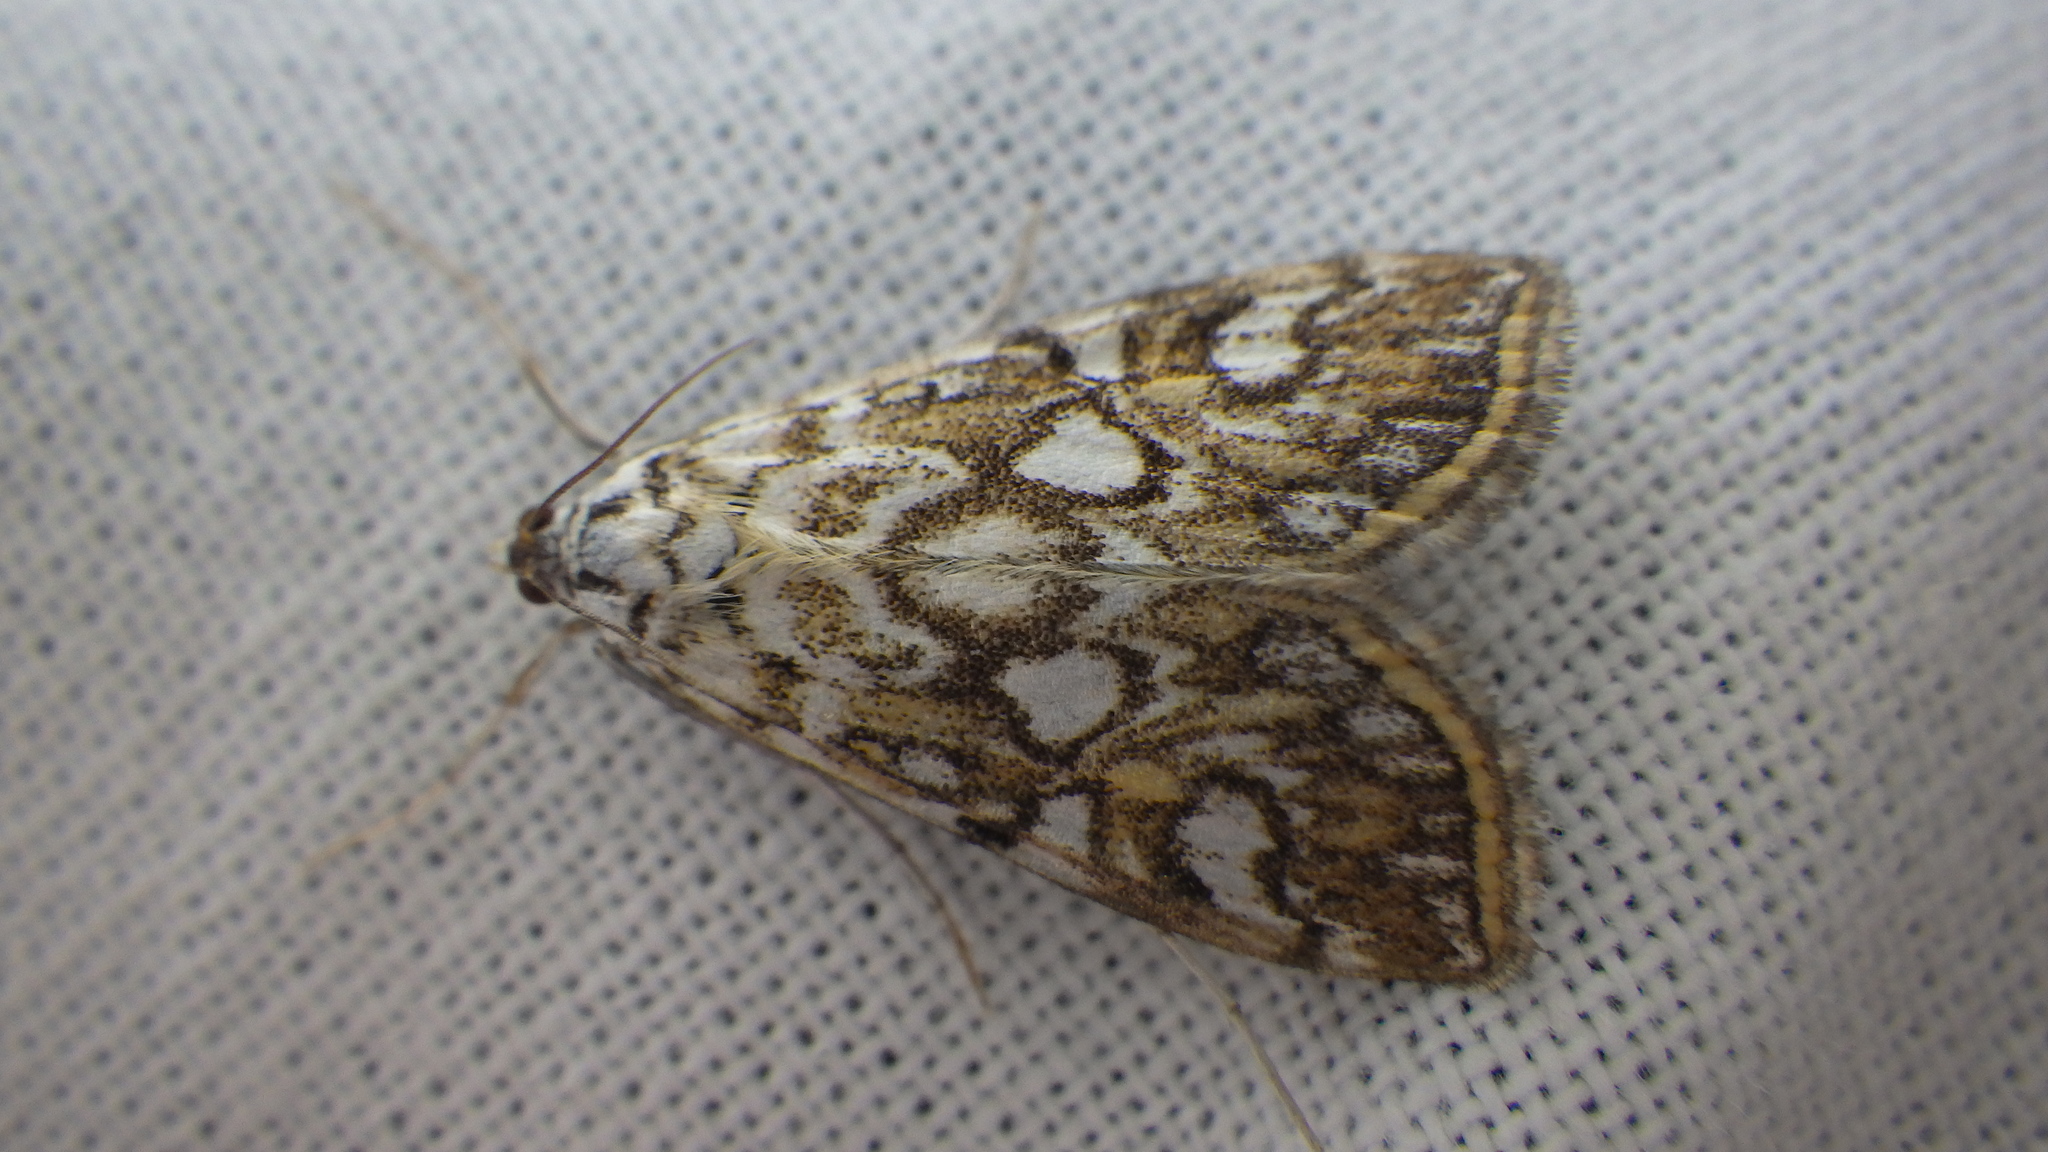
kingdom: Animalia
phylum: Arthropoda
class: Insecta
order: Lepidoptera
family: Crambidae
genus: Elophila
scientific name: Elophila nymphaeata
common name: Brown china-mark
